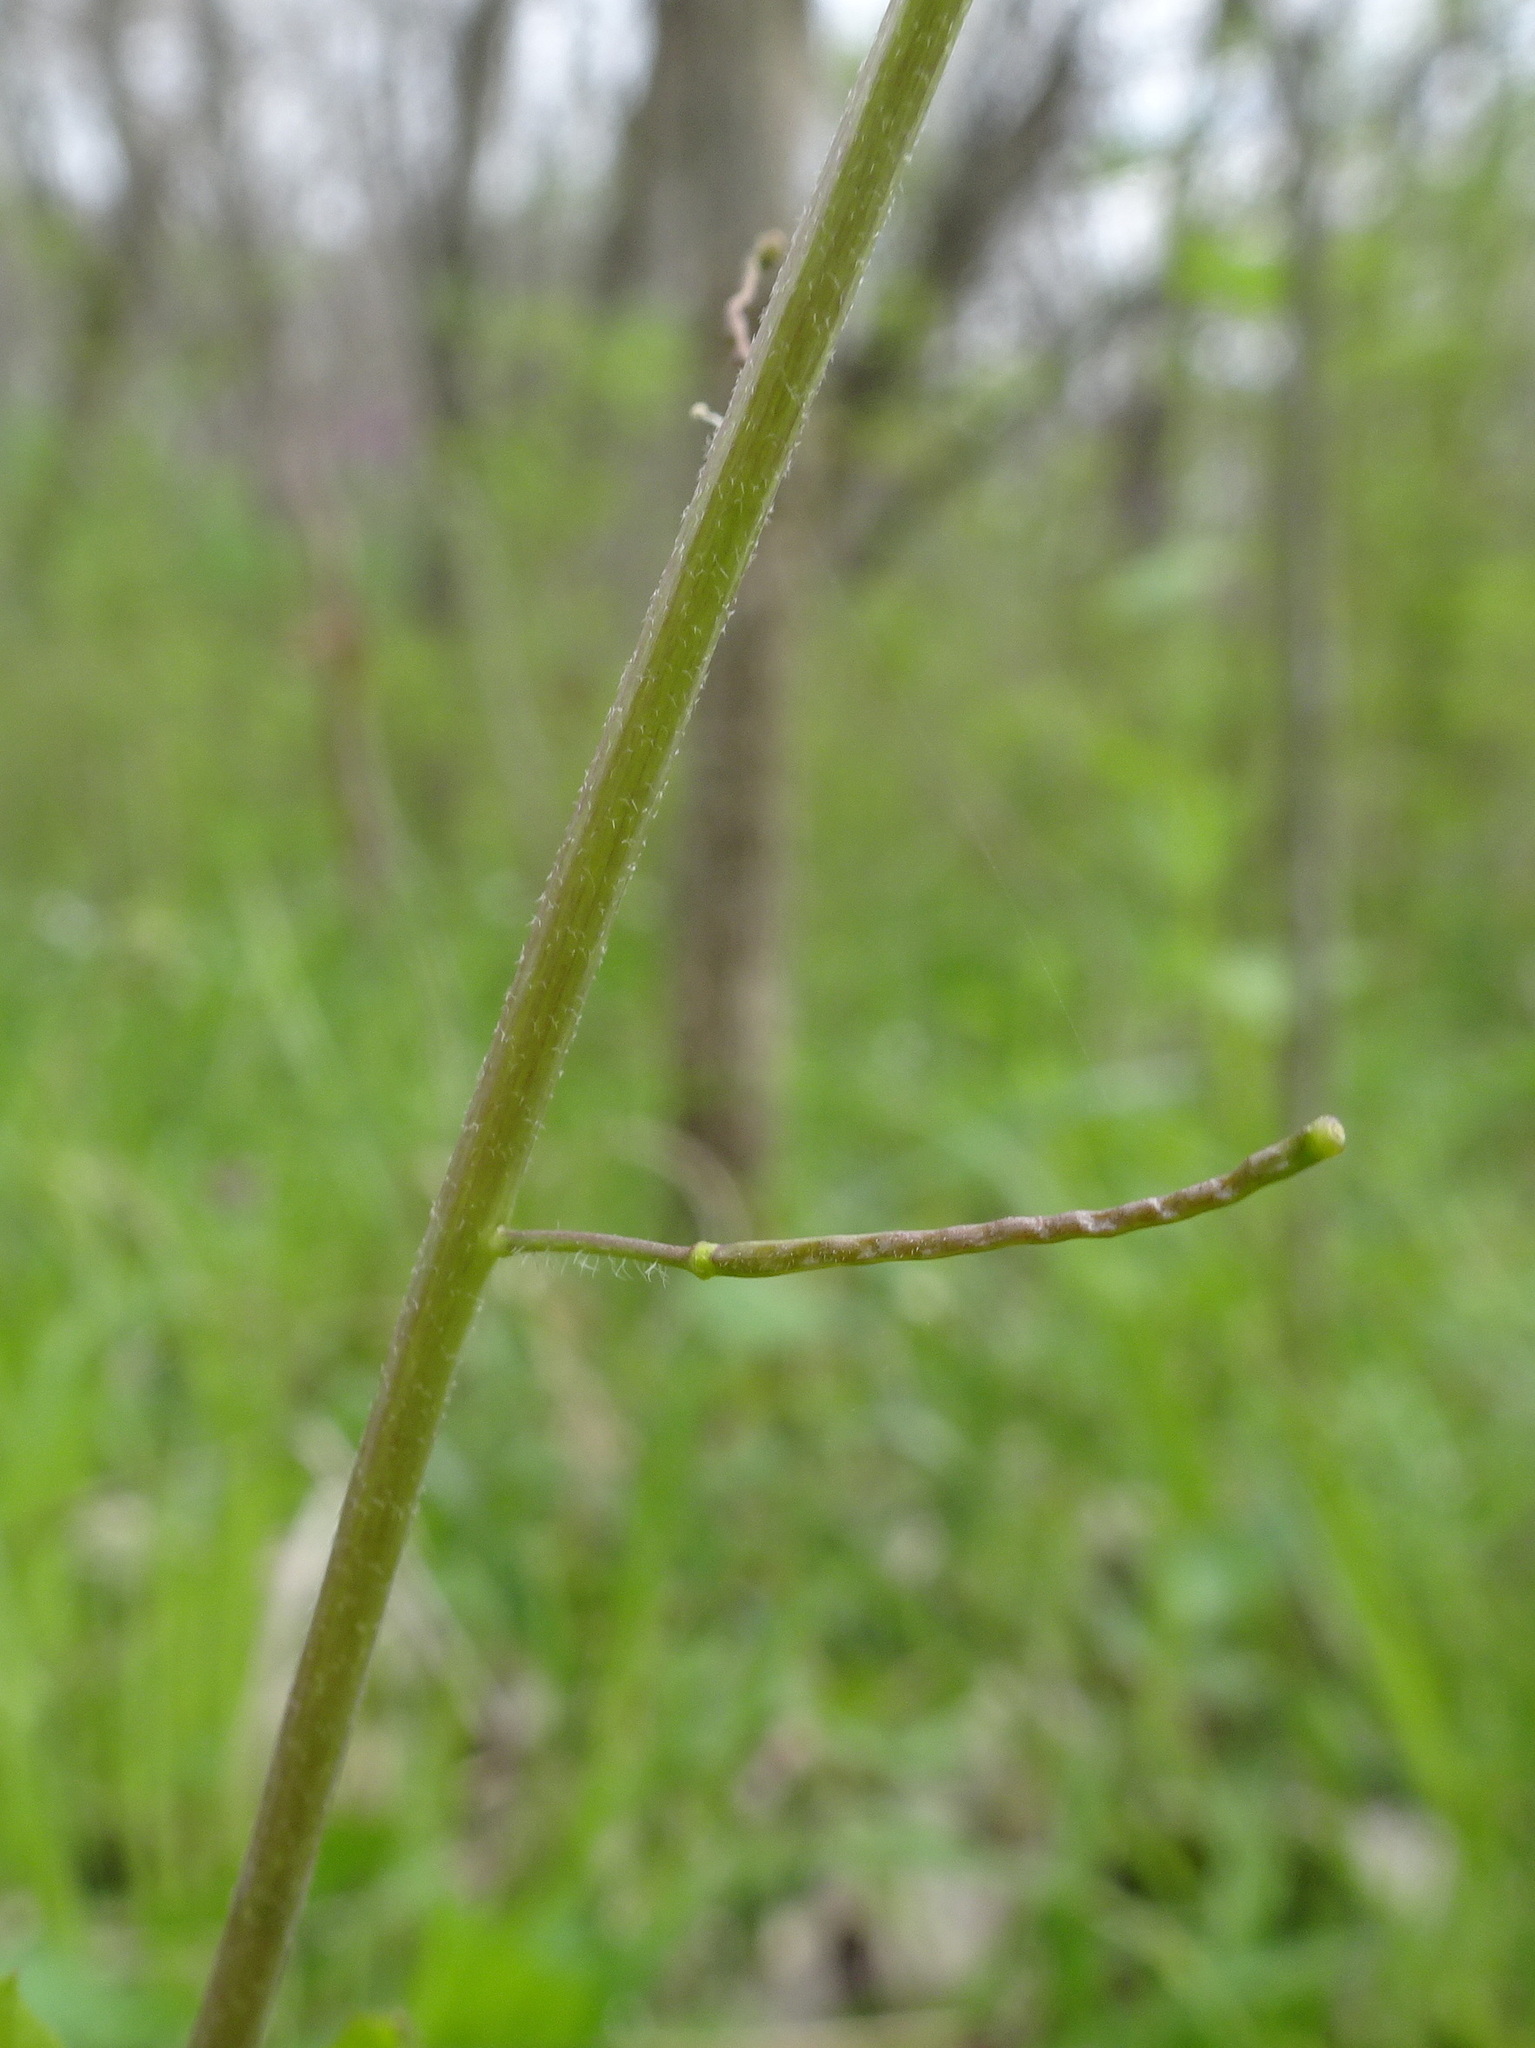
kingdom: Plantae
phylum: Tracheophyta
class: Magnoliopsida
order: Brassicales
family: Brassicaceae
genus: Borodinia
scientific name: Borodinia dentata
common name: Short's rockcress
